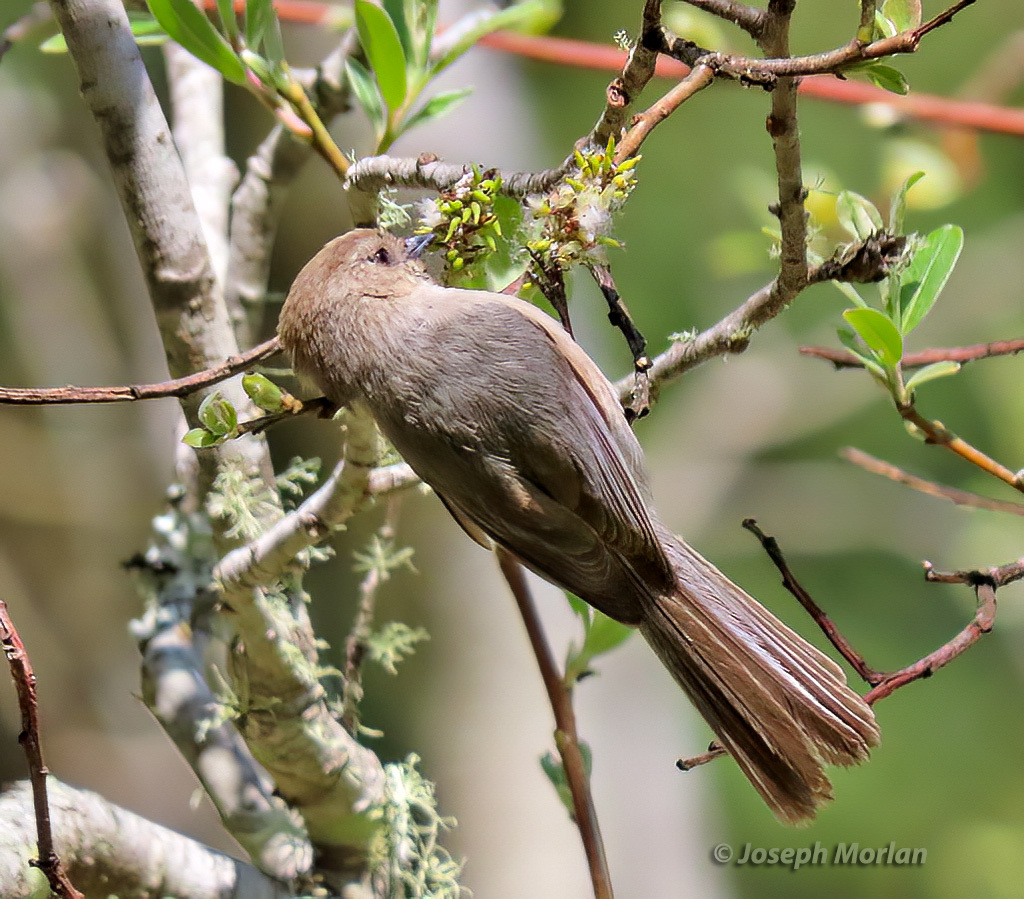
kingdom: Animalia
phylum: Chordata
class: Aves
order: Passeriformes
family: Aegithalidae
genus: Psaltriparus
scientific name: Psaltriparus minimus
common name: American bushtit
